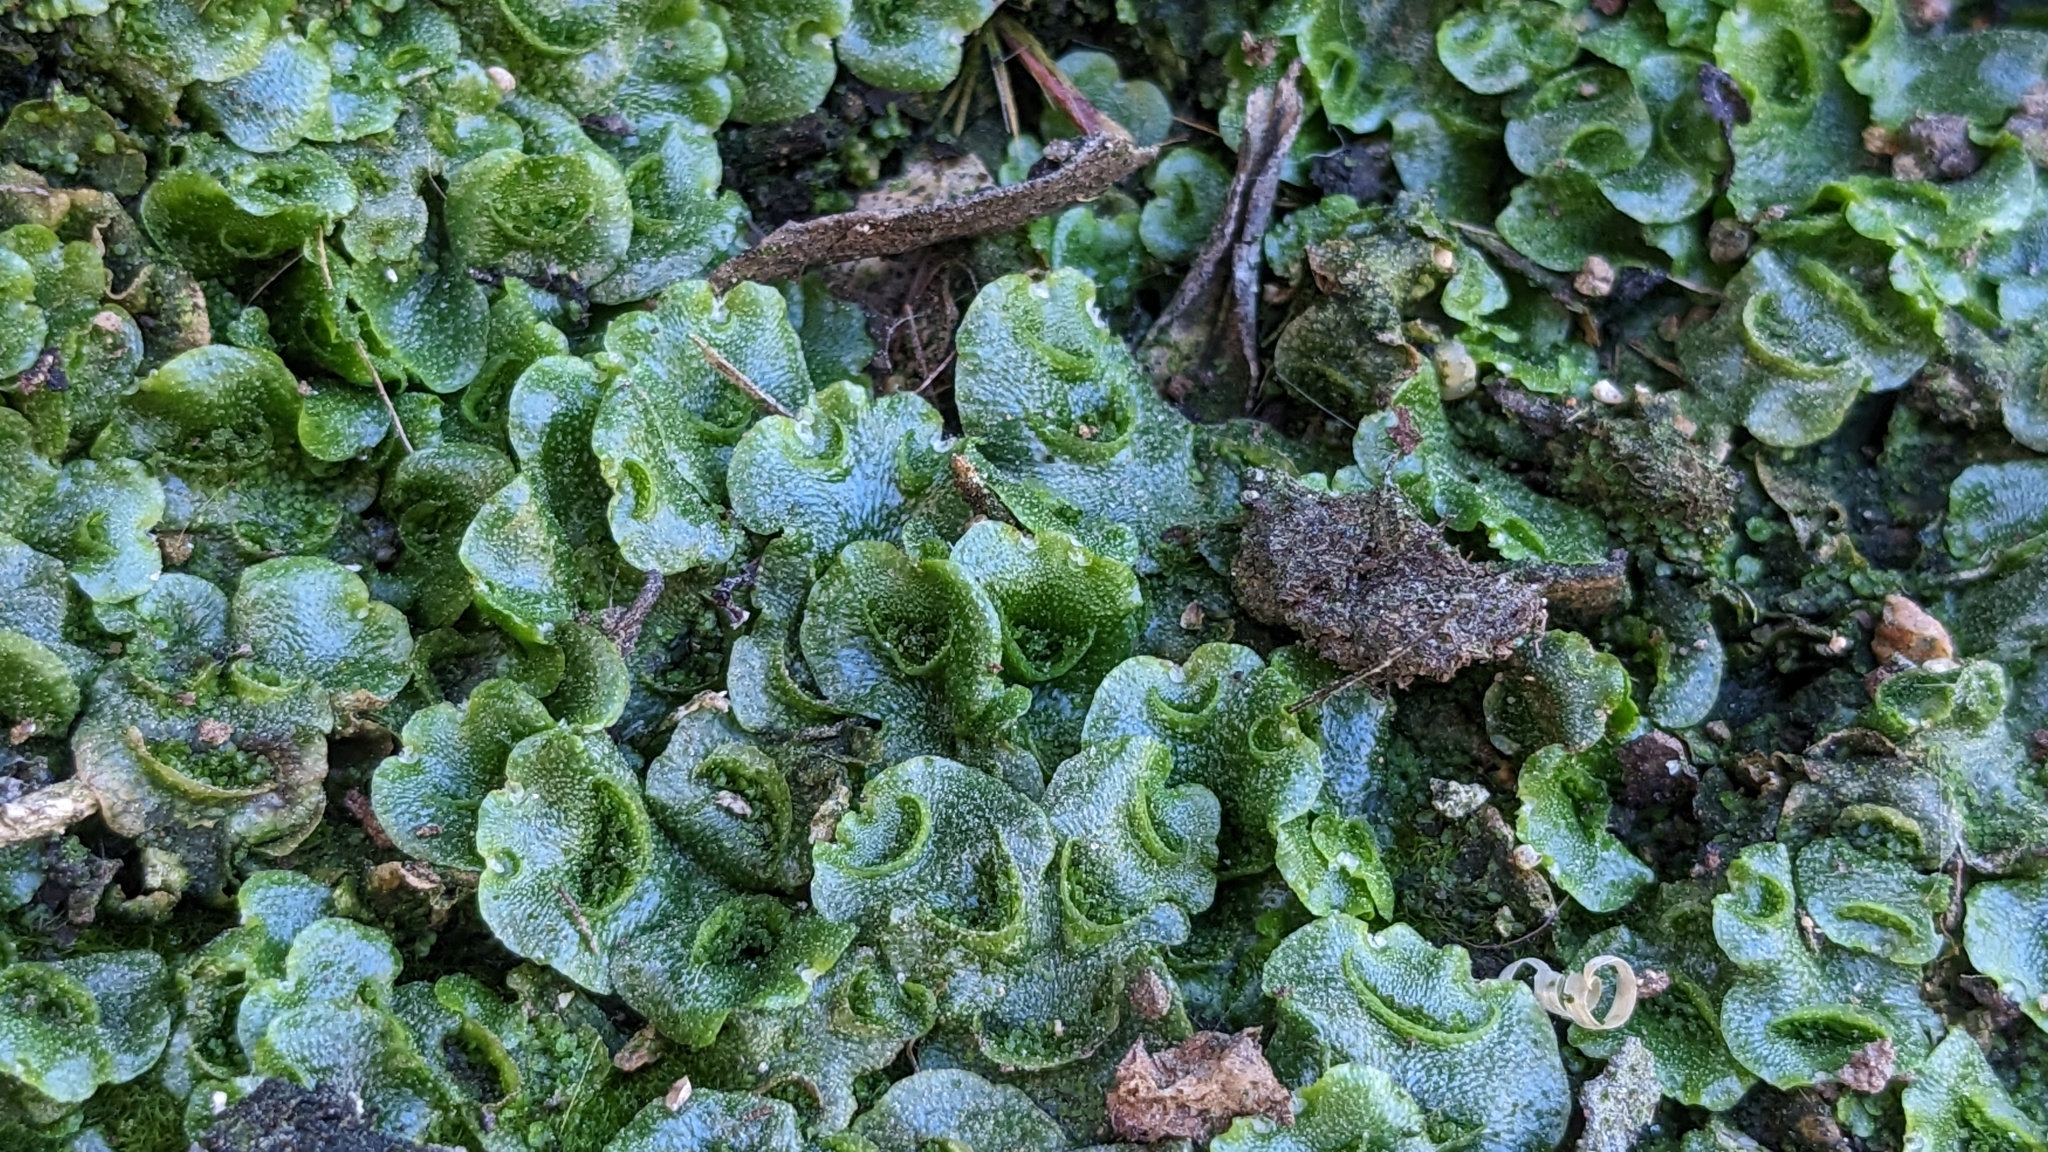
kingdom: Plantae
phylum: Marchantiophyta
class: Marchantiopsida
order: Lunulariales
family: Lunulariaceae
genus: Lunularia
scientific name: Lunularia cruciata
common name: Crescent-cup liverwort
